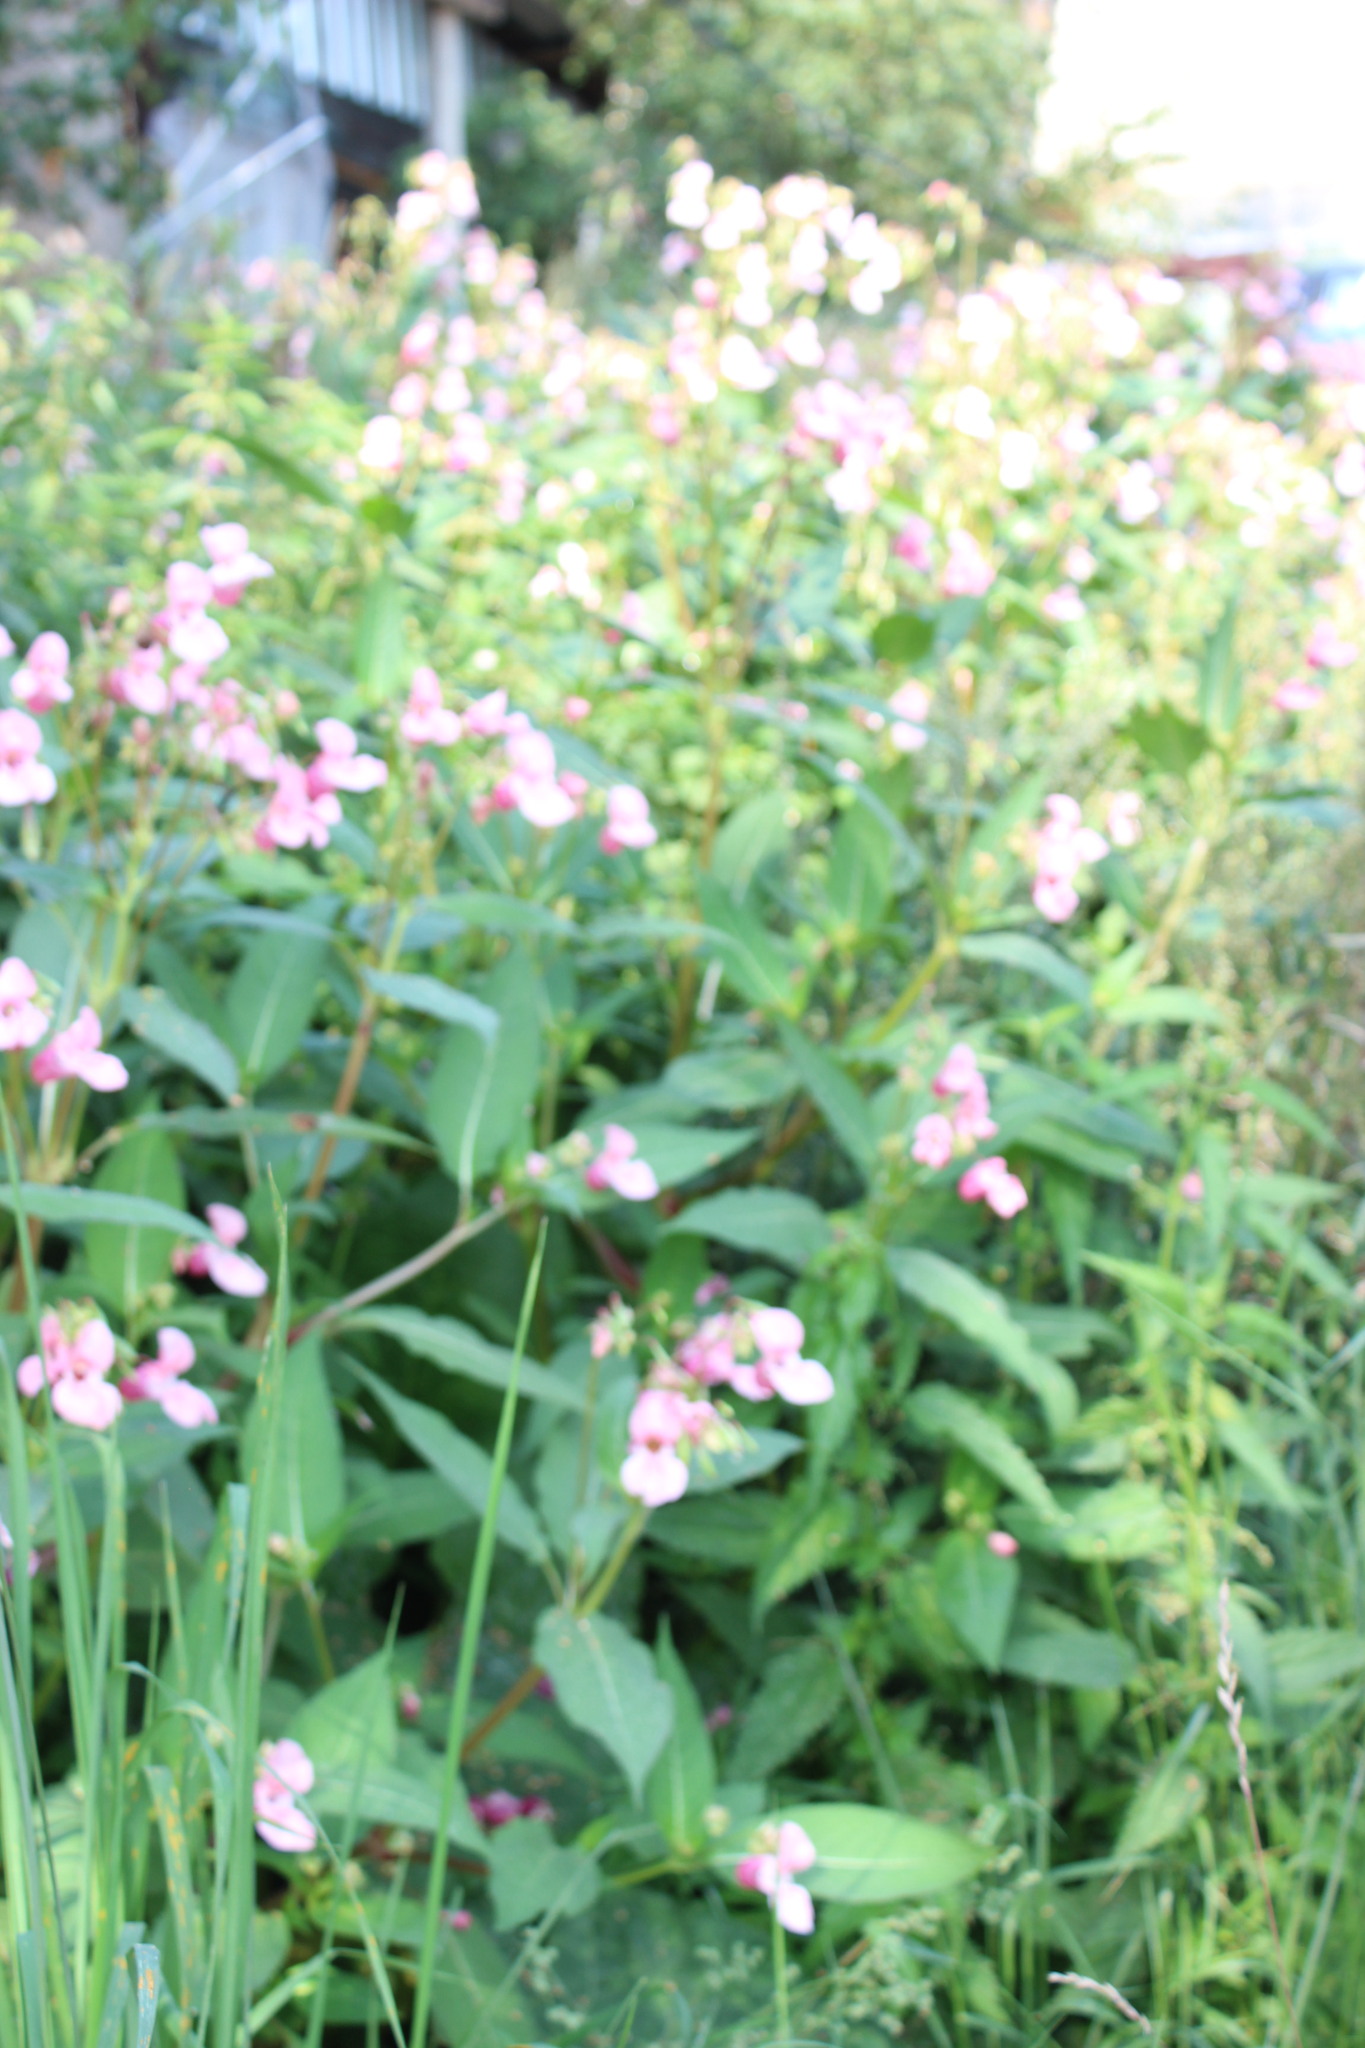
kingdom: Plantae
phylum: Tracheophyta
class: Magnoliopsida
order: Ericales
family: Balsaminaceae
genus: Impatiens
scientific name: Impatiens glandulifera
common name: Himalayan balsam
